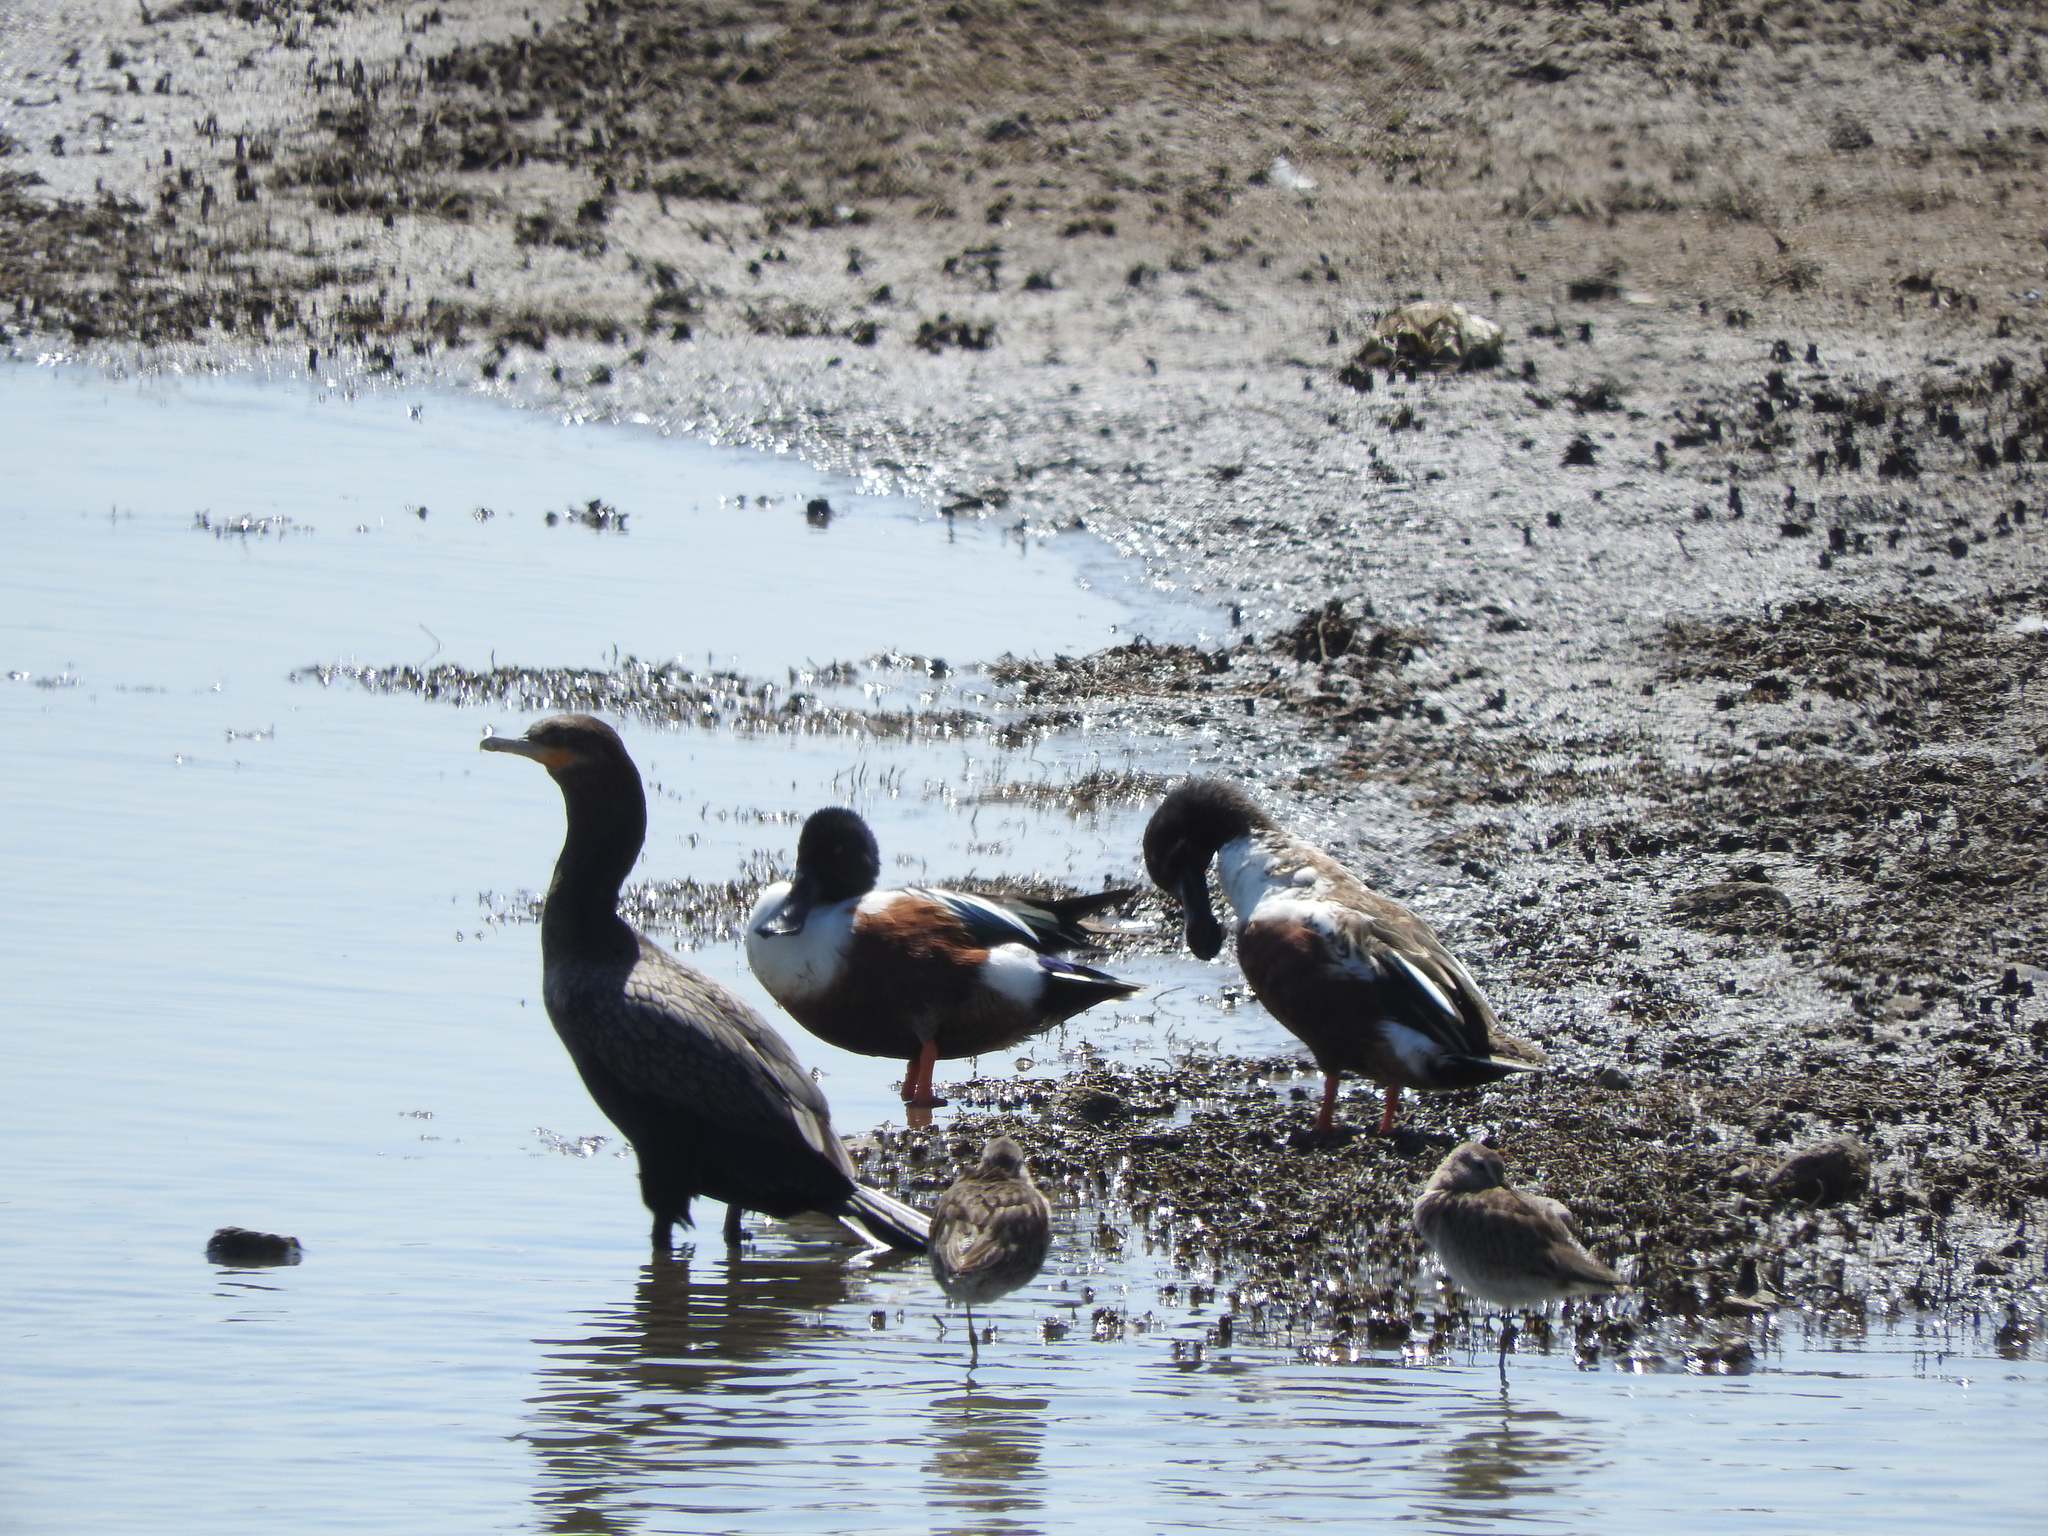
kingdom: Animalia
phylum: Chordata
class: Aves
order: Anseriformes
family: Anatidae
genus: Spatula
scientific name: Spatula clypeata
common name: Northern shoveler
